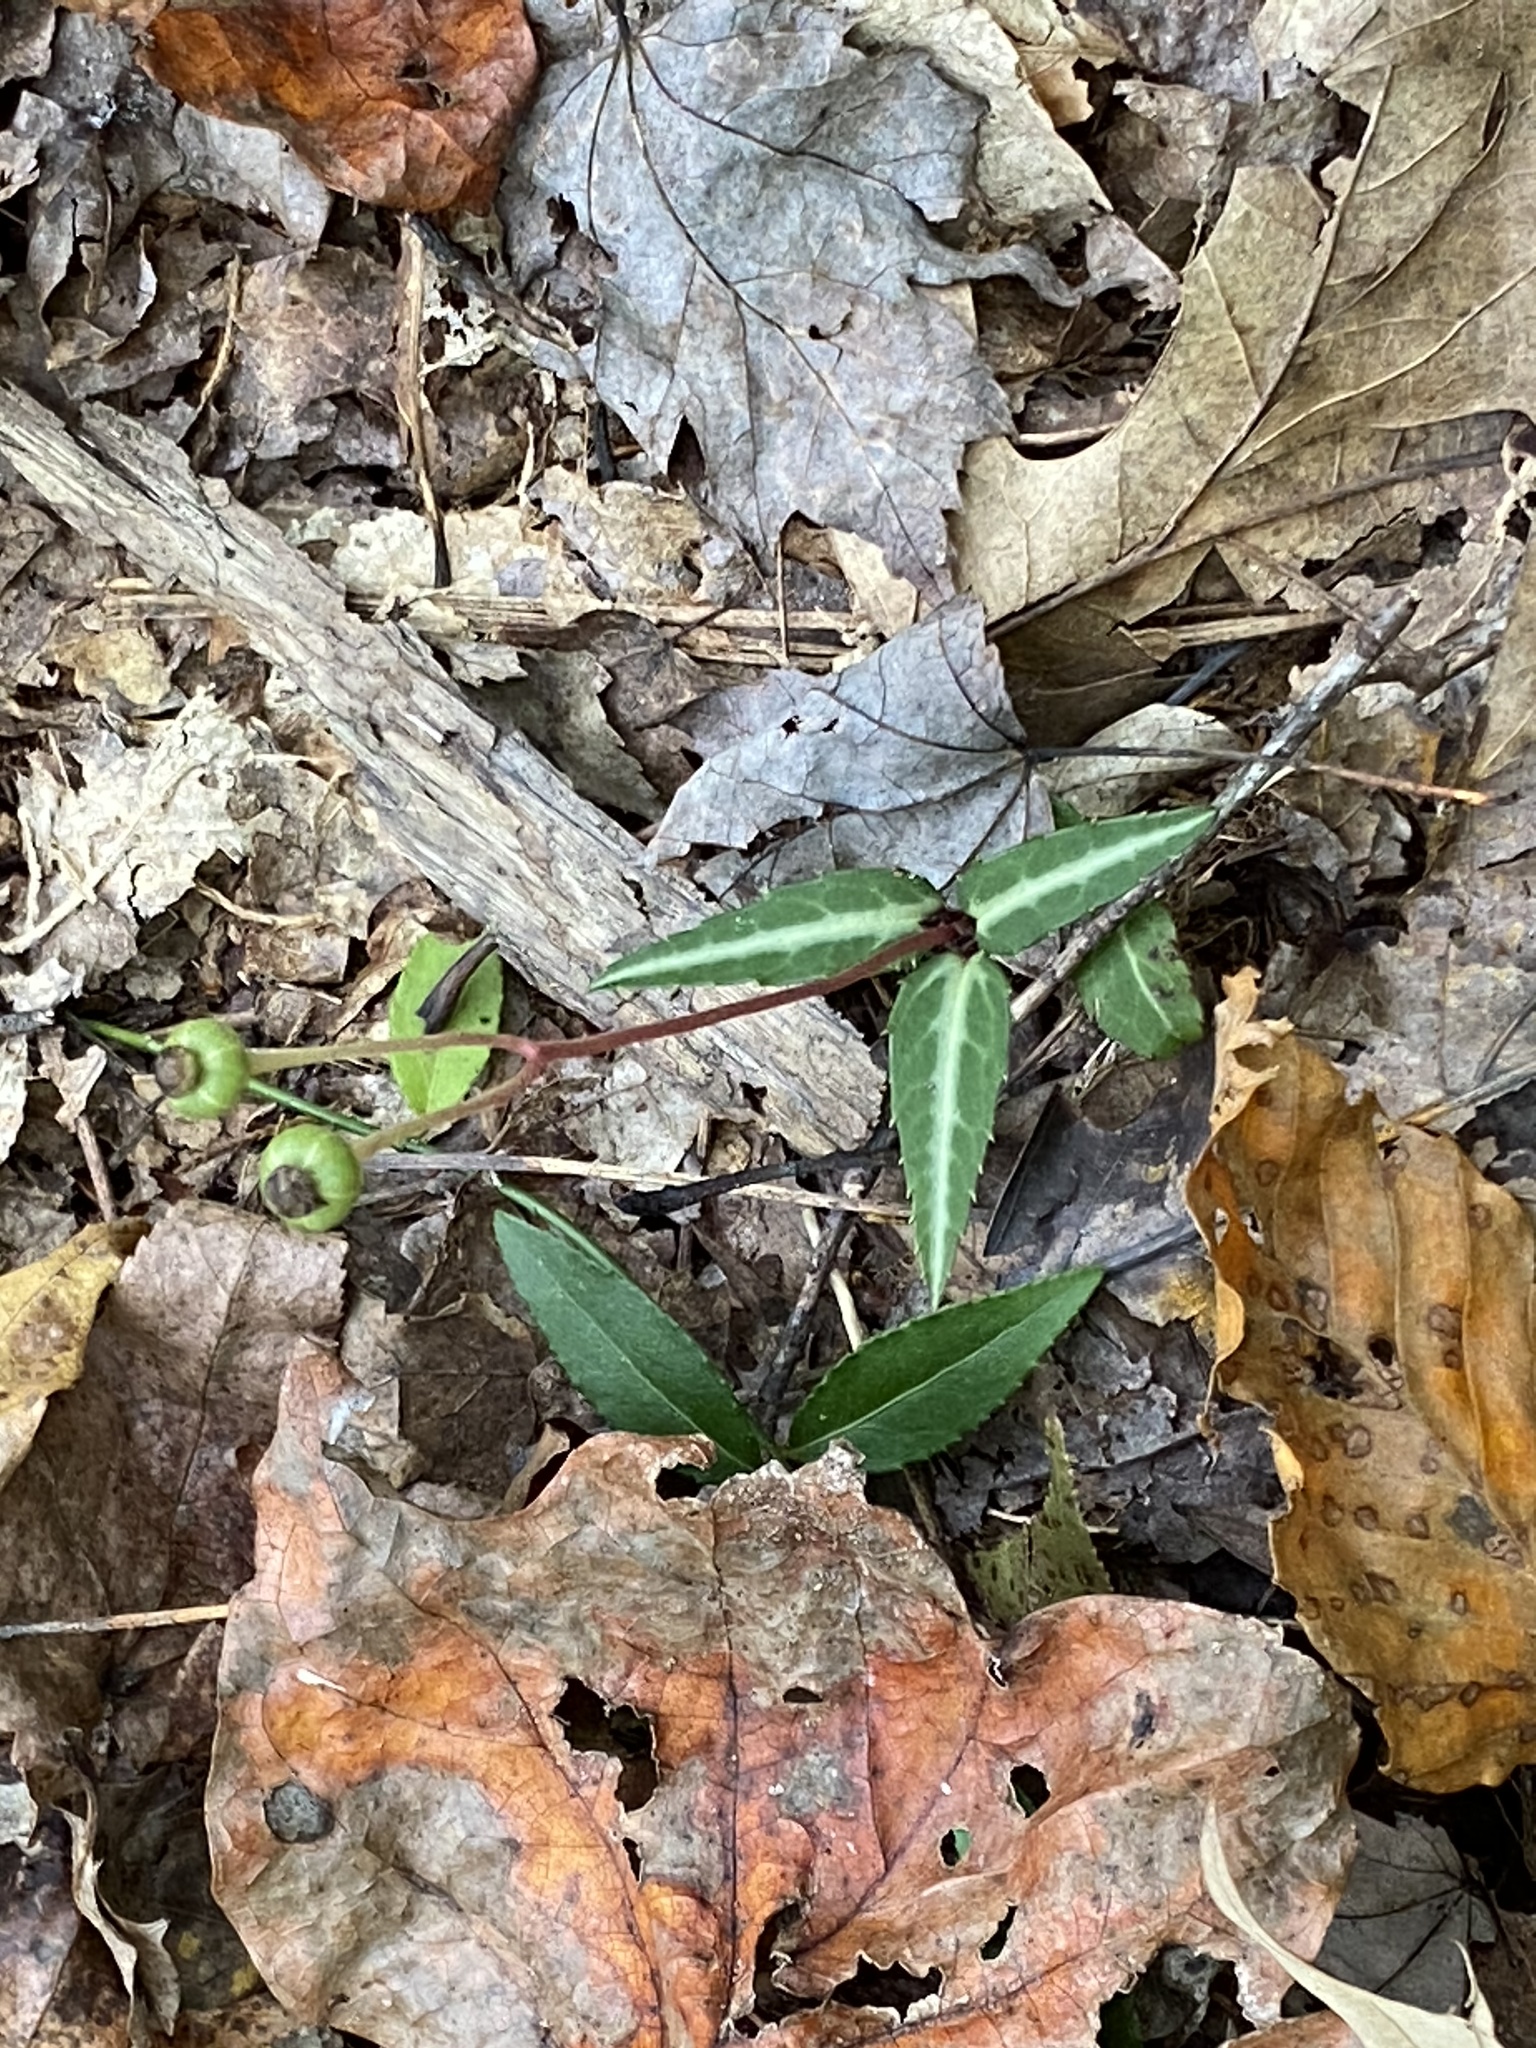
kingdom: Plantae
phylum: Tracheophyta
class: Magnoliopsida
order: Ericales
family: Ericaceae
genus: Chimaphila
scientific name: Chimaphila maculata
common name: Spotted pipsissewa
